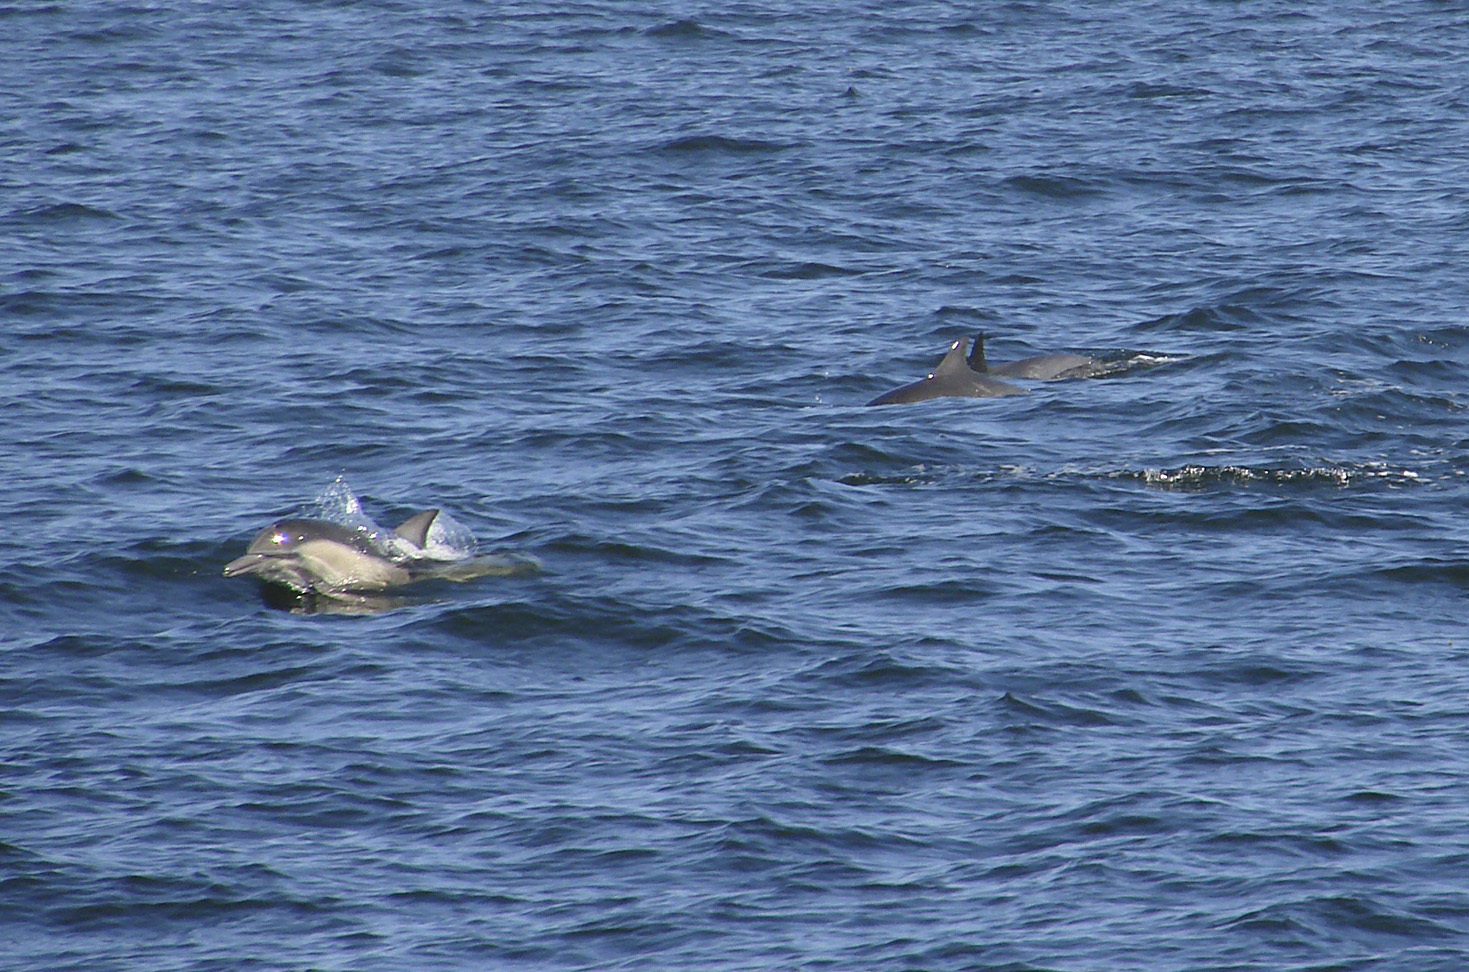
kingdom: Animalia
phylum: Chordata
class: Mammalia
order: Cetacea
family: Delphinidae
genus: Delphinus
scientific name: Delphinus delphis
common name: Common dolphin
